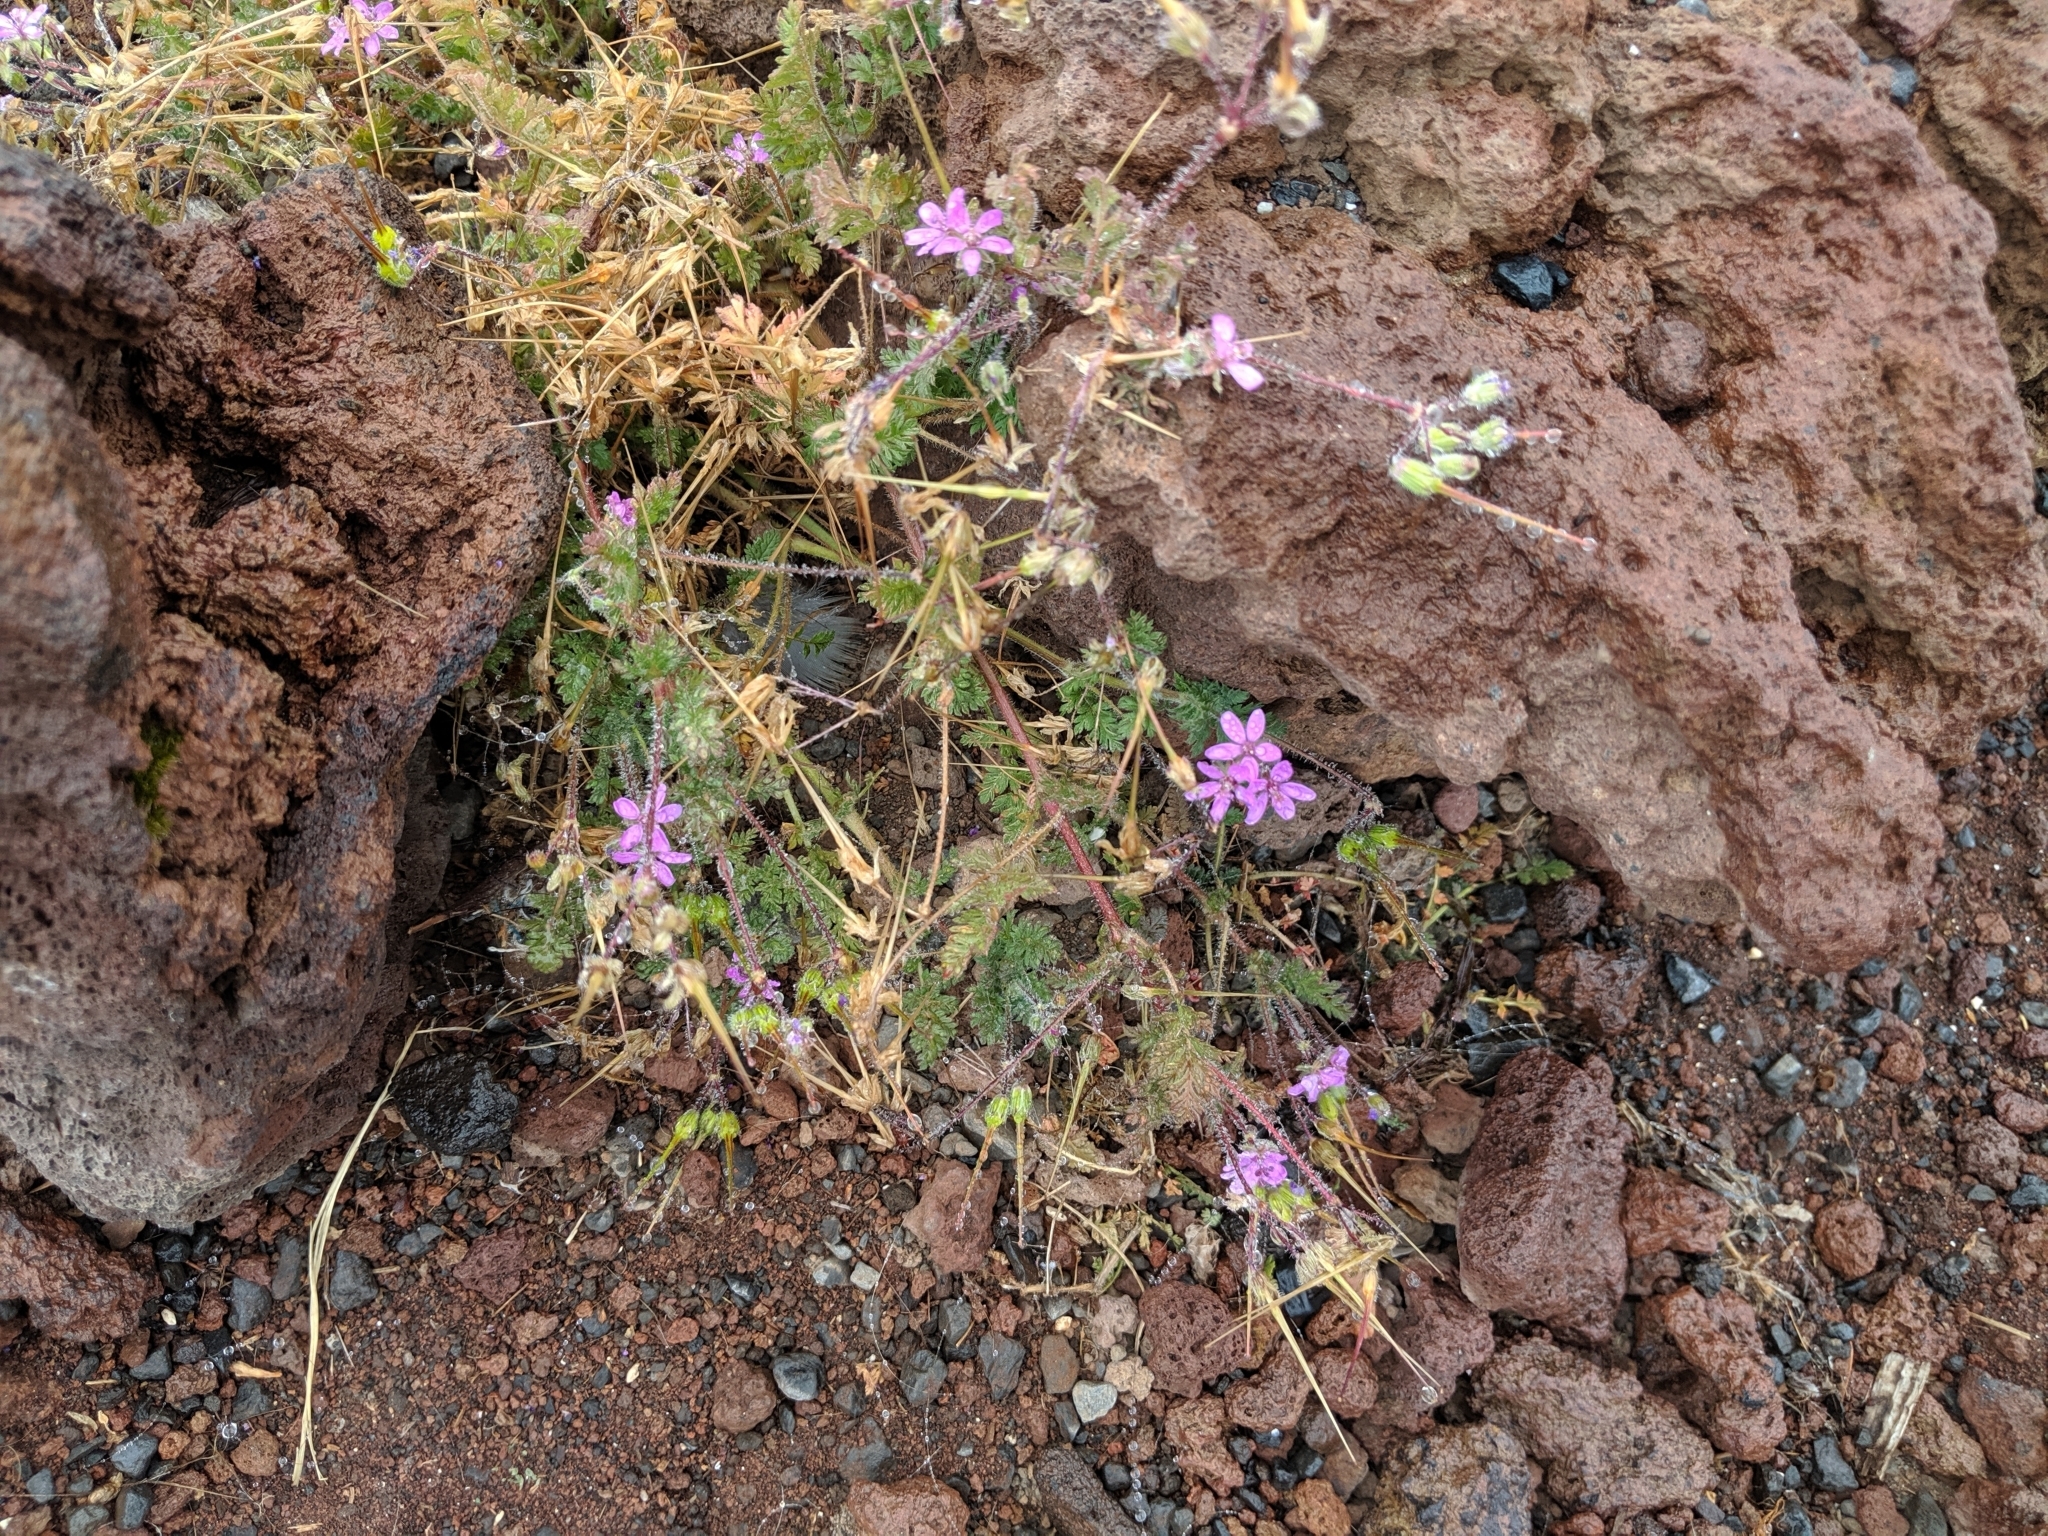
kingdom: Plantae
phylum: Tracheophyta
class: Magnoliopsida
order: Geraniales
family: Geraniaceae
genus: Erodium
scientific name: Erodium cicutarium
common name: Common stork's-bill
